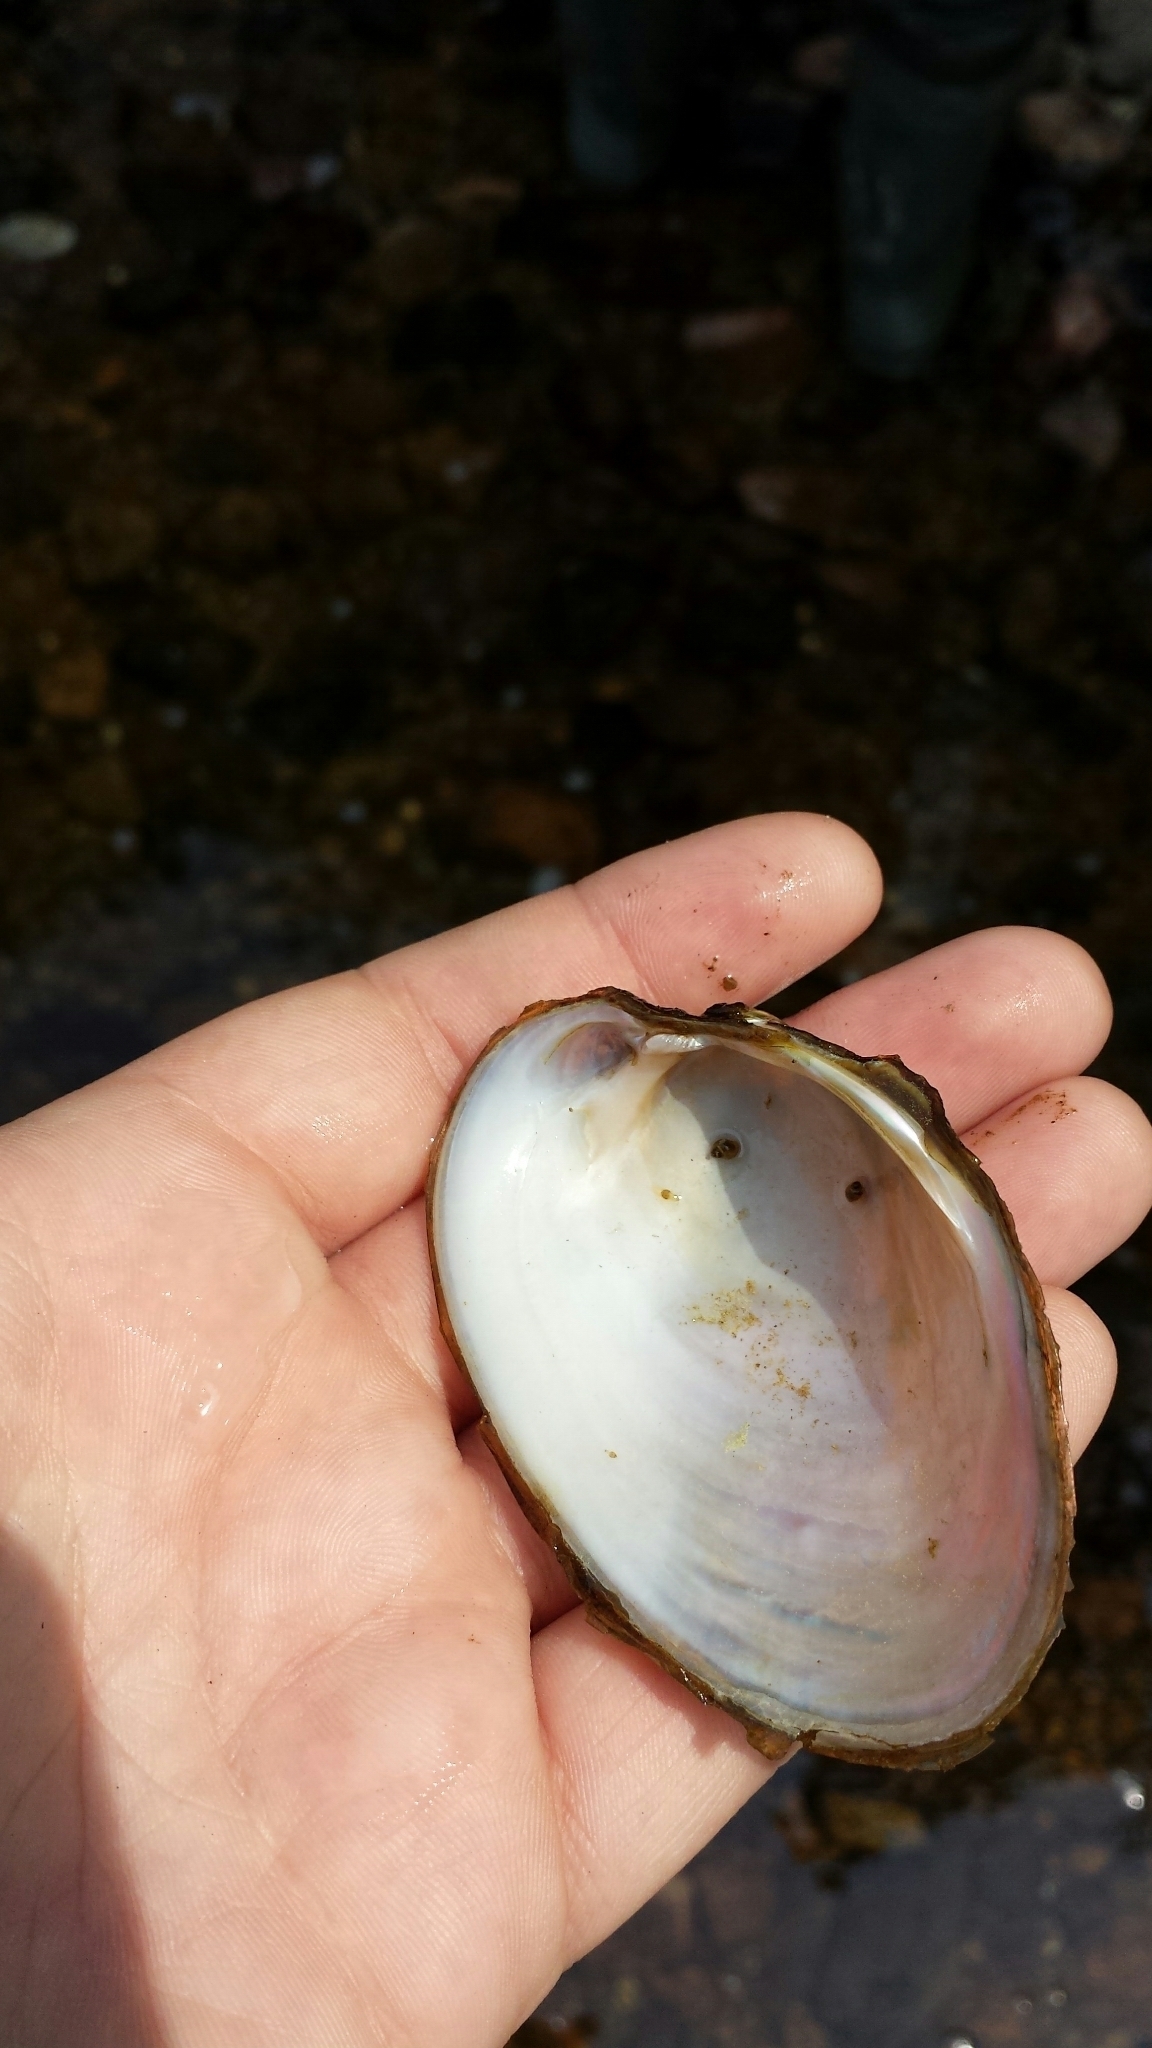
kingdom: Animalia
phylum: Mollusca
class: Bivalvia
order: Unionida
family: Unionidae
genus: Lampsilis
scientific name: Lampsilis cariosa
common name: Yellow lampmussel
